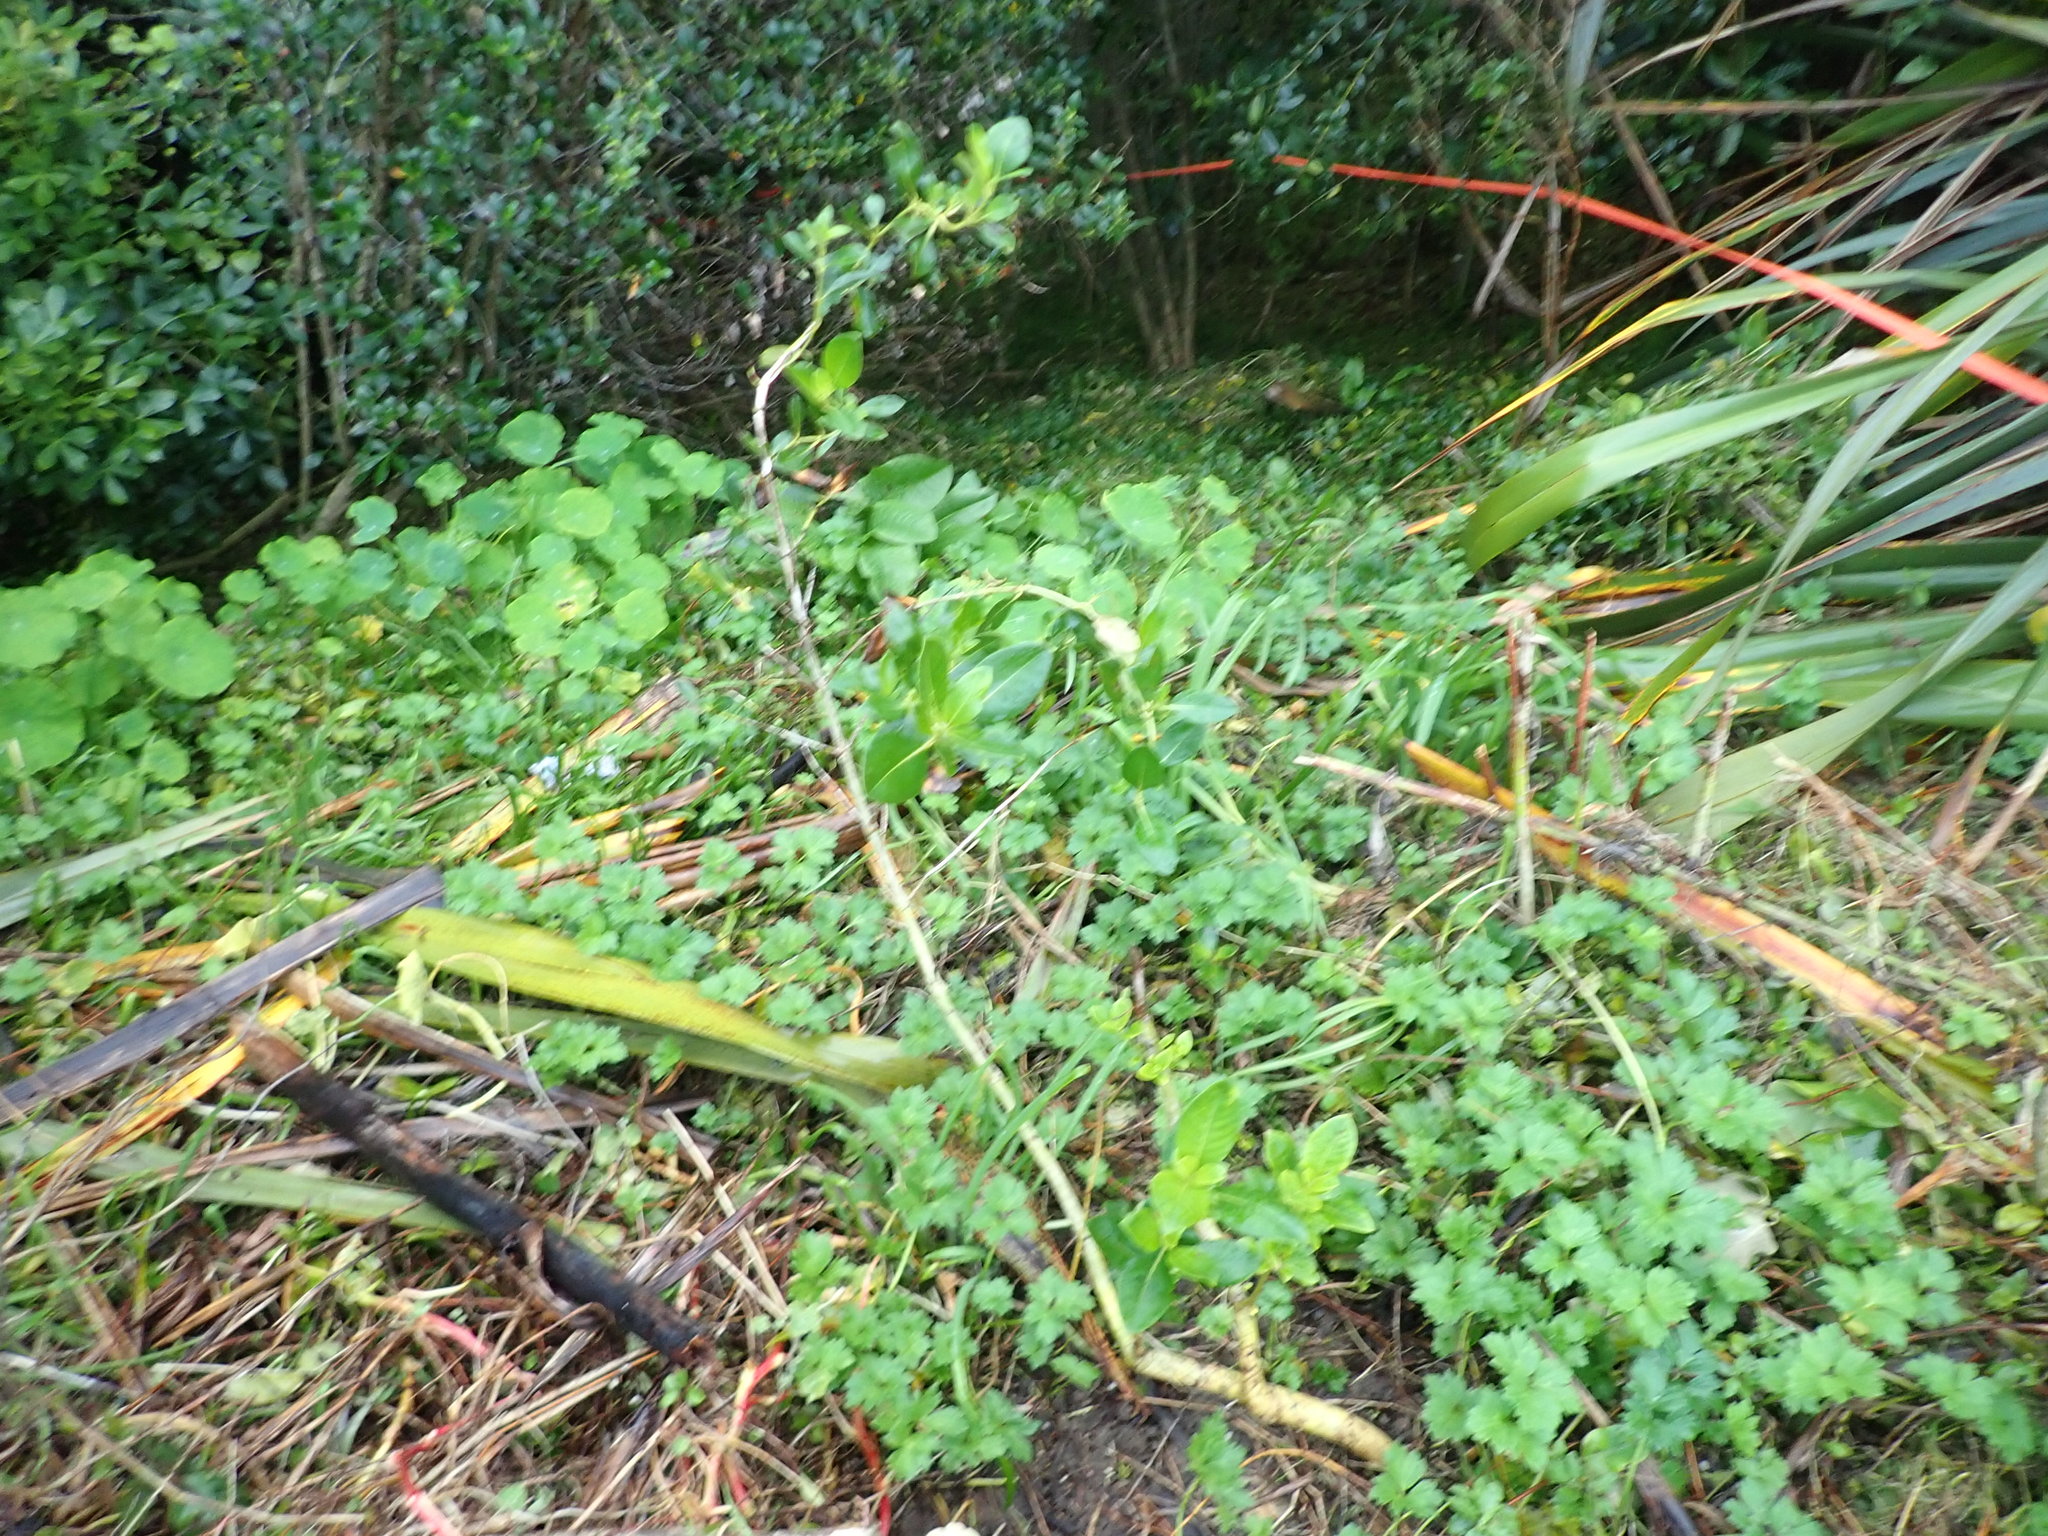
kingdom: Plantae
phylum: Tracheophyta
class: Magnoliopsida
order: Gentianales
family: Rubiaceae
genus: Coprosma
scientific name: Coprosma robusta
